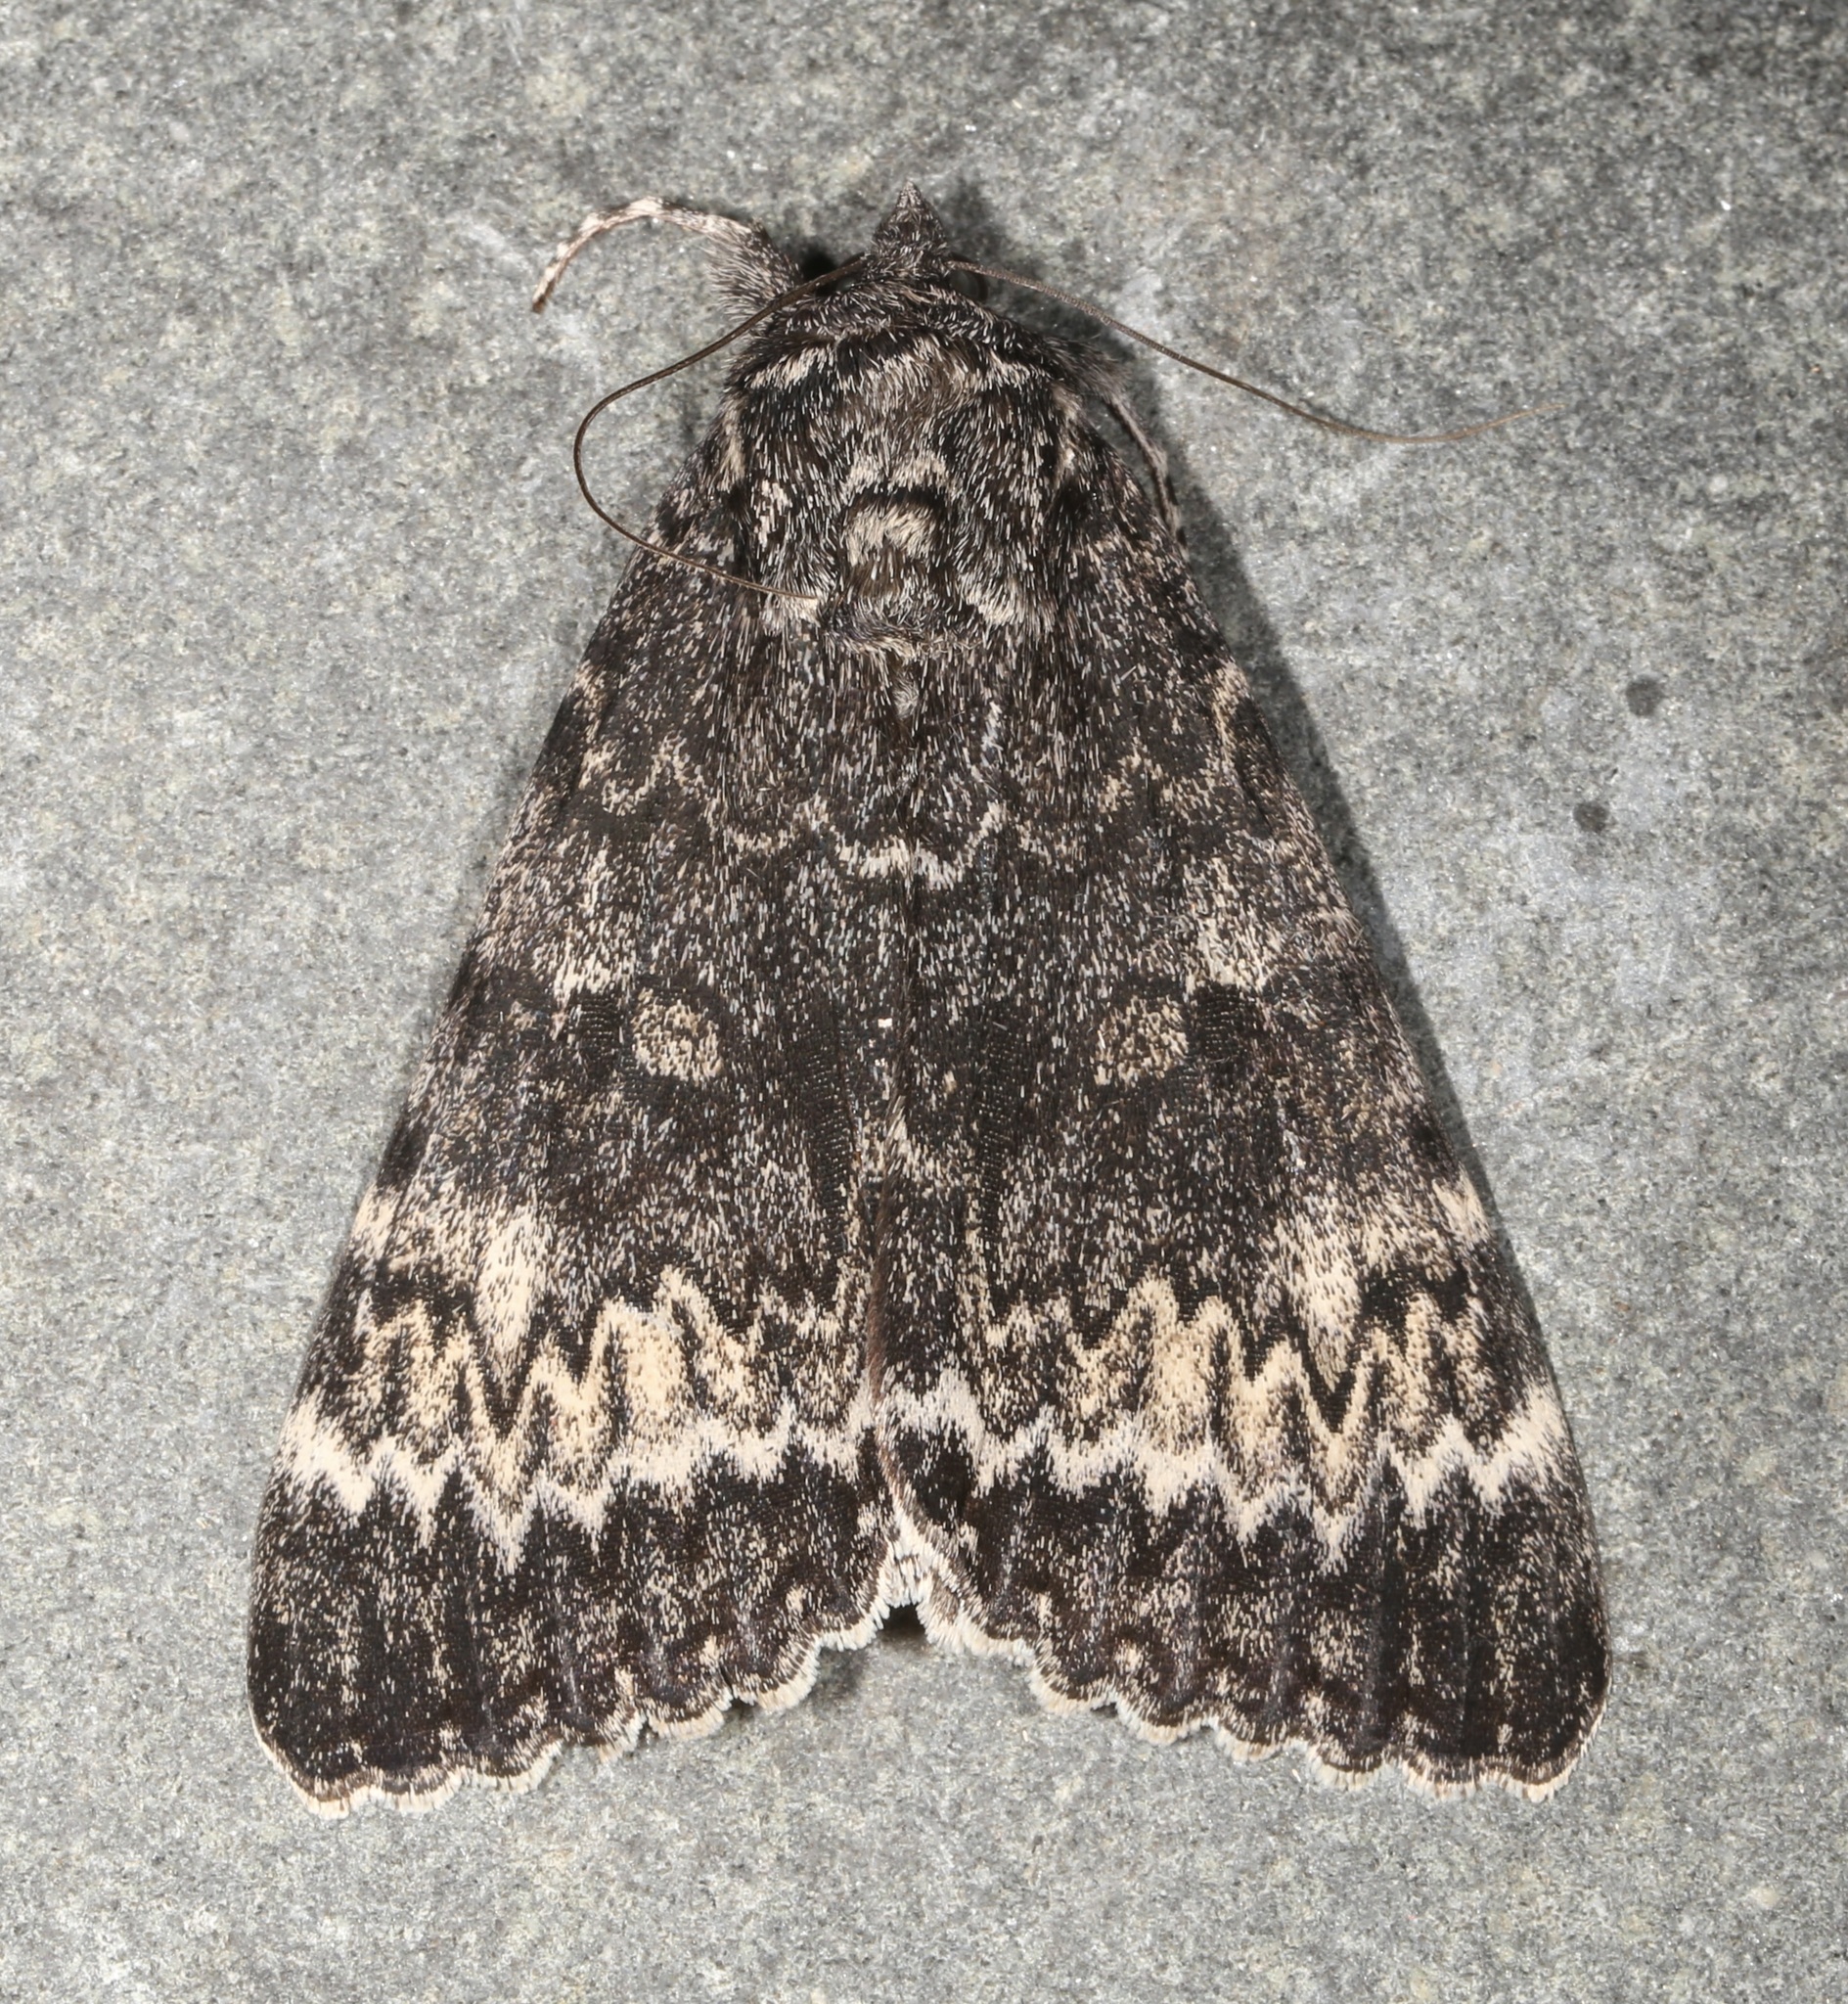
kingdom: Animalia
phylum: Arthropoda
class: Insecta
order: Lepidoptera
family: Erebidae
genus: Catocala
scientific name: Catocala grotiana
